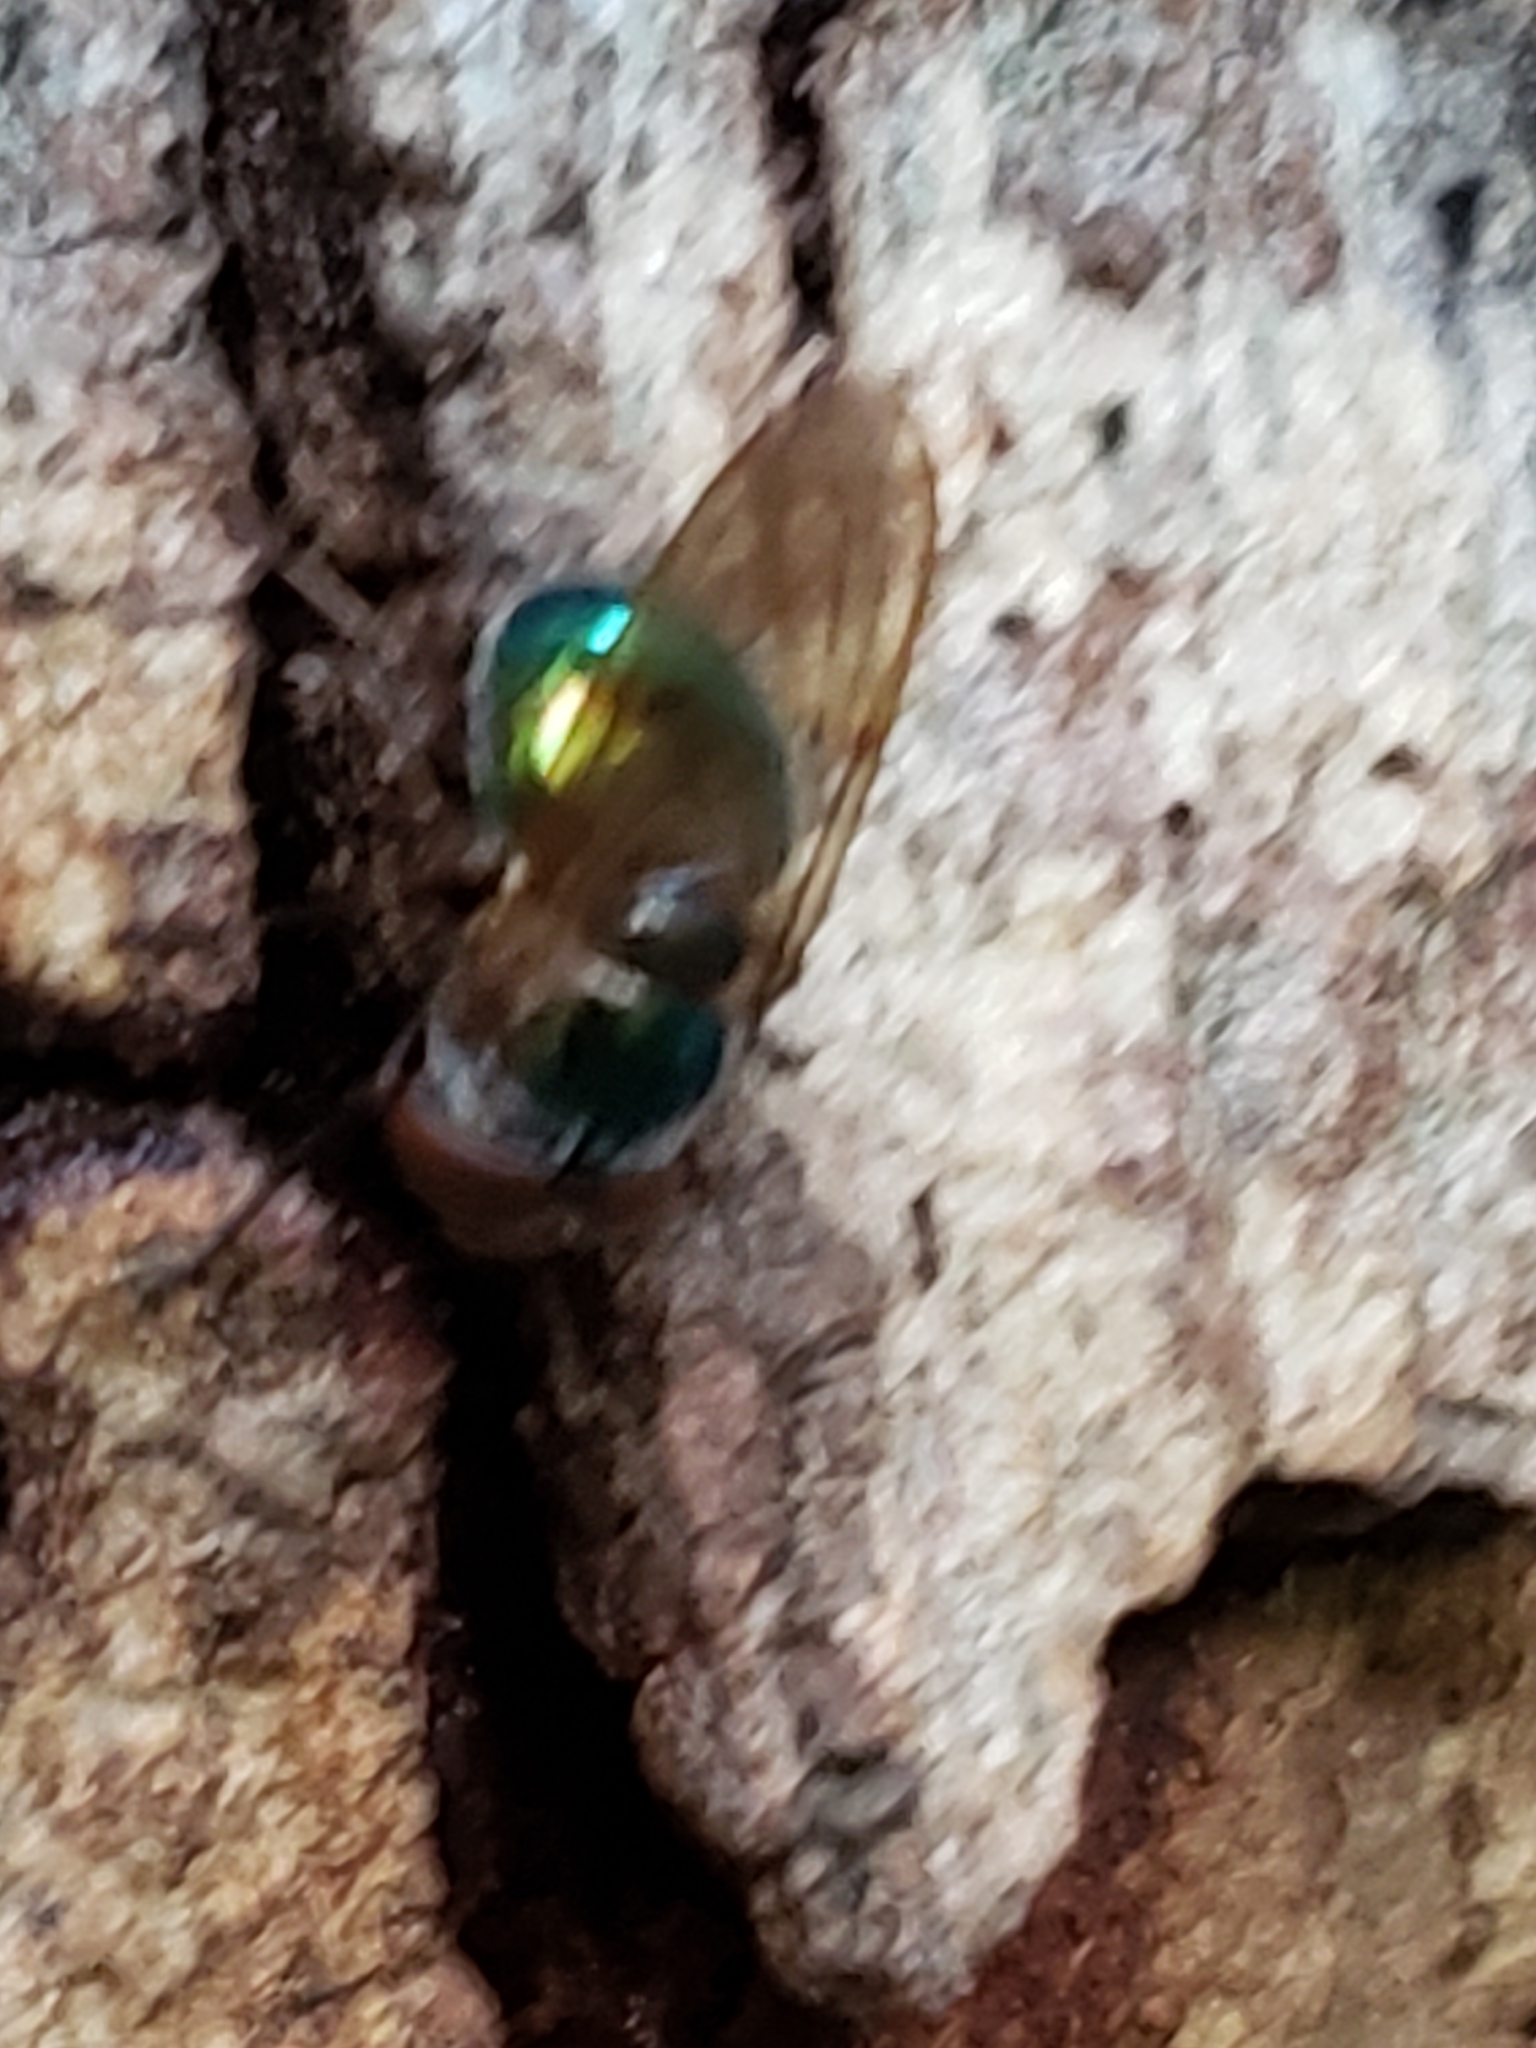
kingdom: Animalia
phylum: Arthropoda
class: Insecta
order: Diptera
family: Syrphidae
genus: Copestylum
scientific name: Copestylum vesicularium
